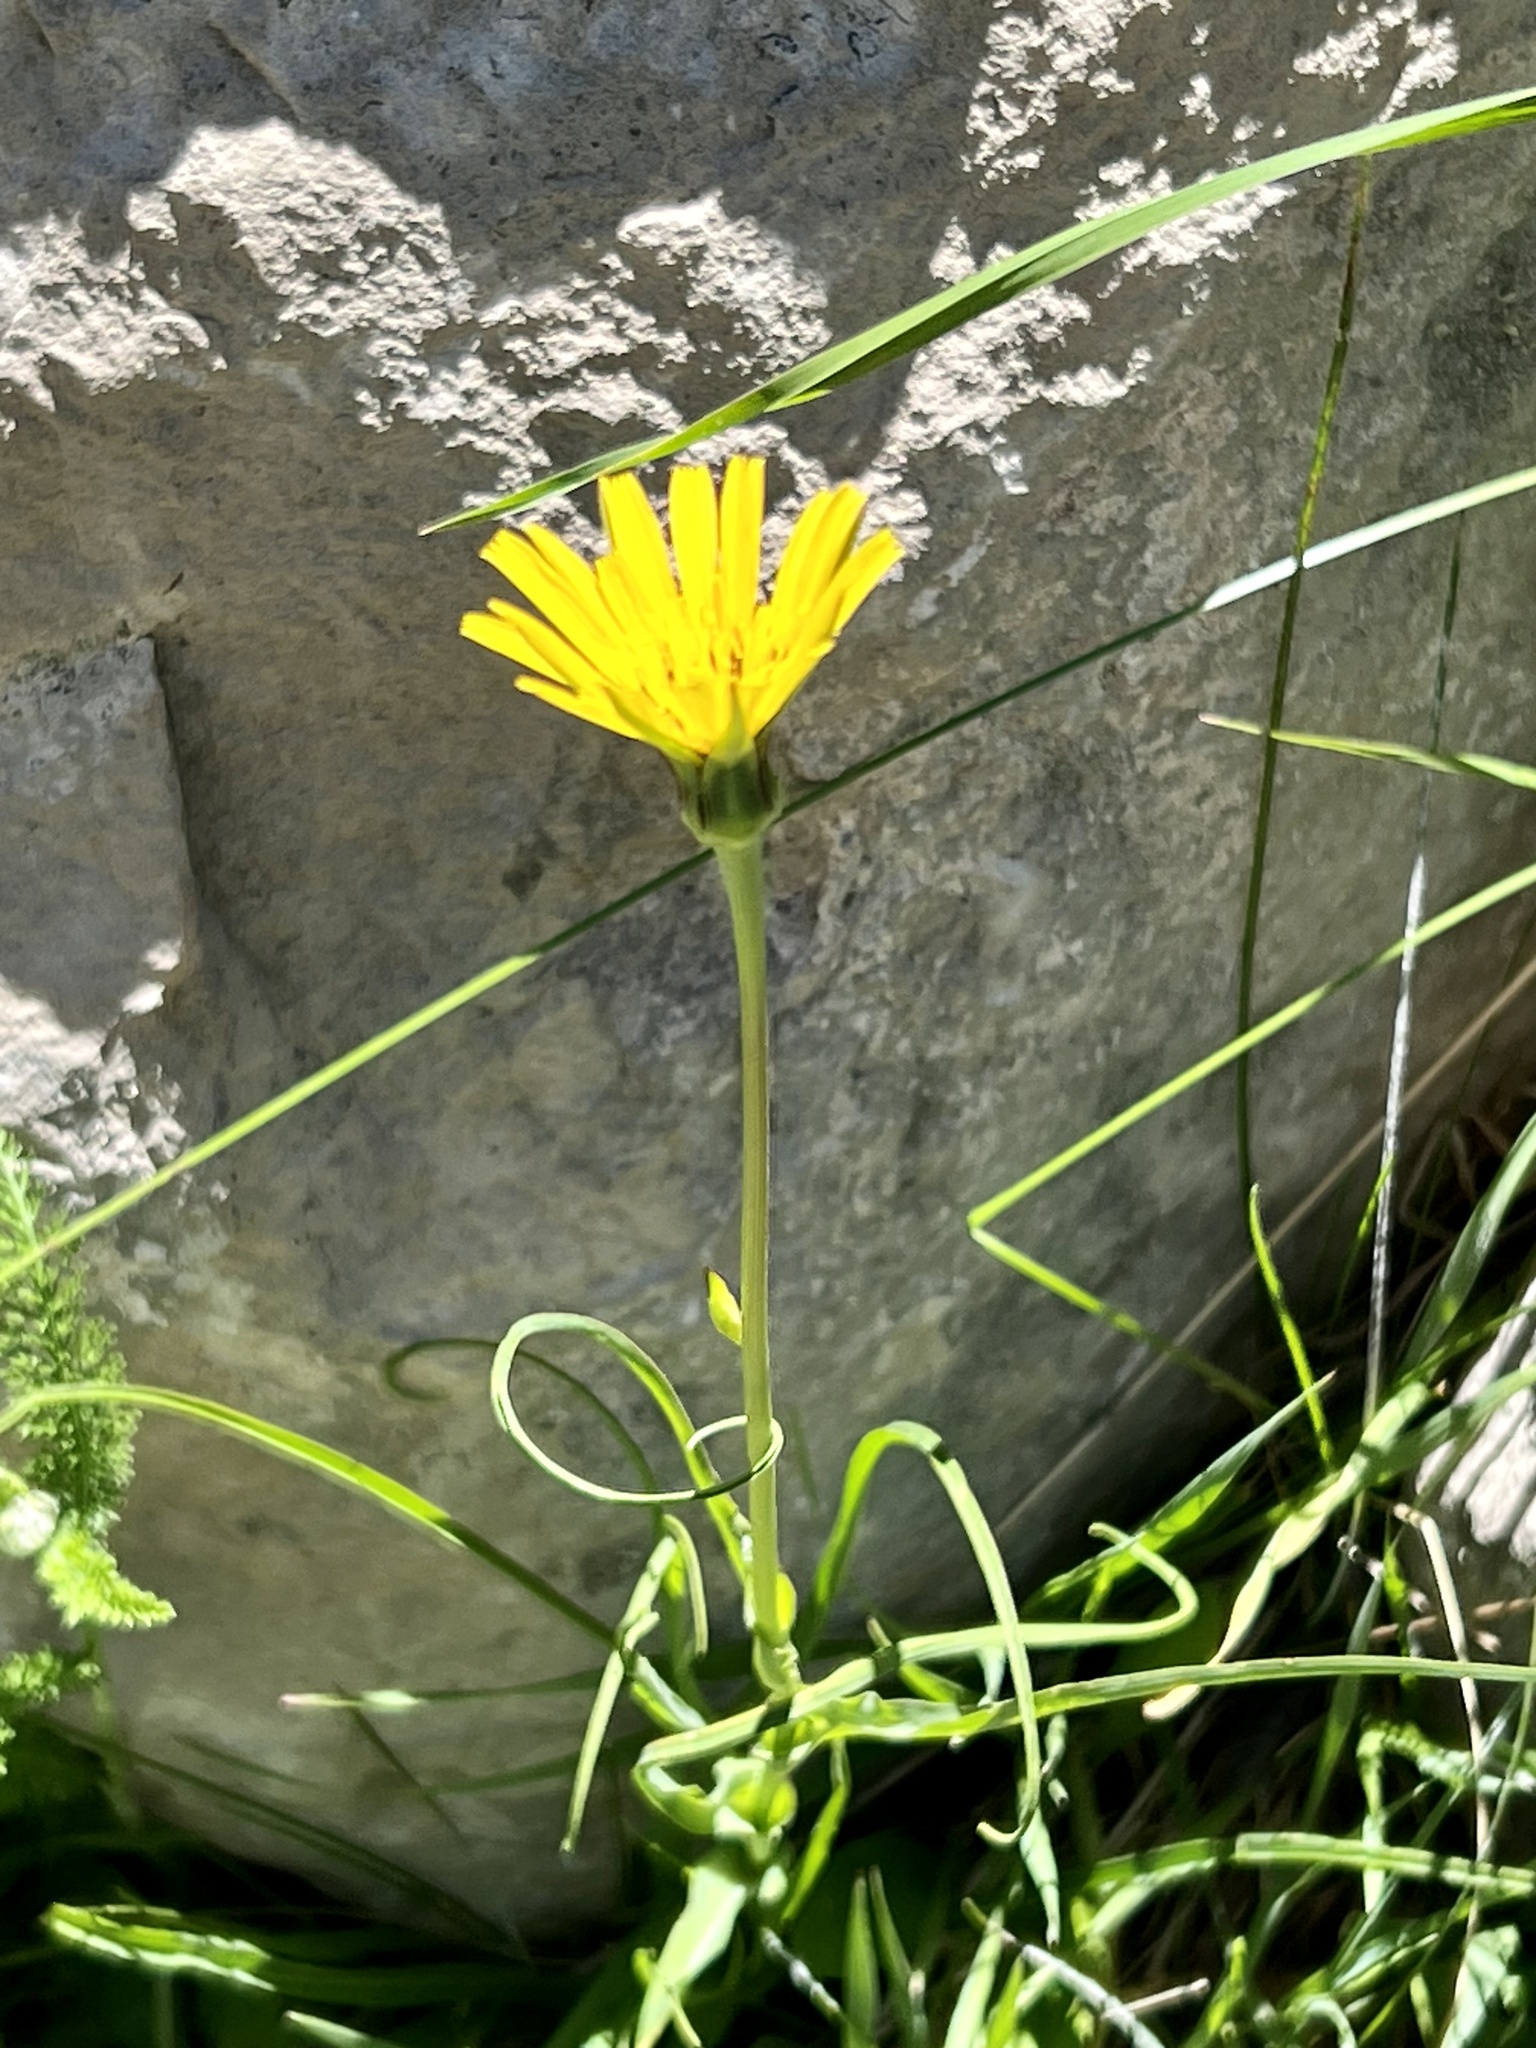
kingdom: Plantae
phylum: Tracheophyta
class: Magnoliopsida
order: Asterales
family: Asteraceae
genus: Tragopogon
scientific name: Tragopogon pratensis
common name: Goat's-beard
